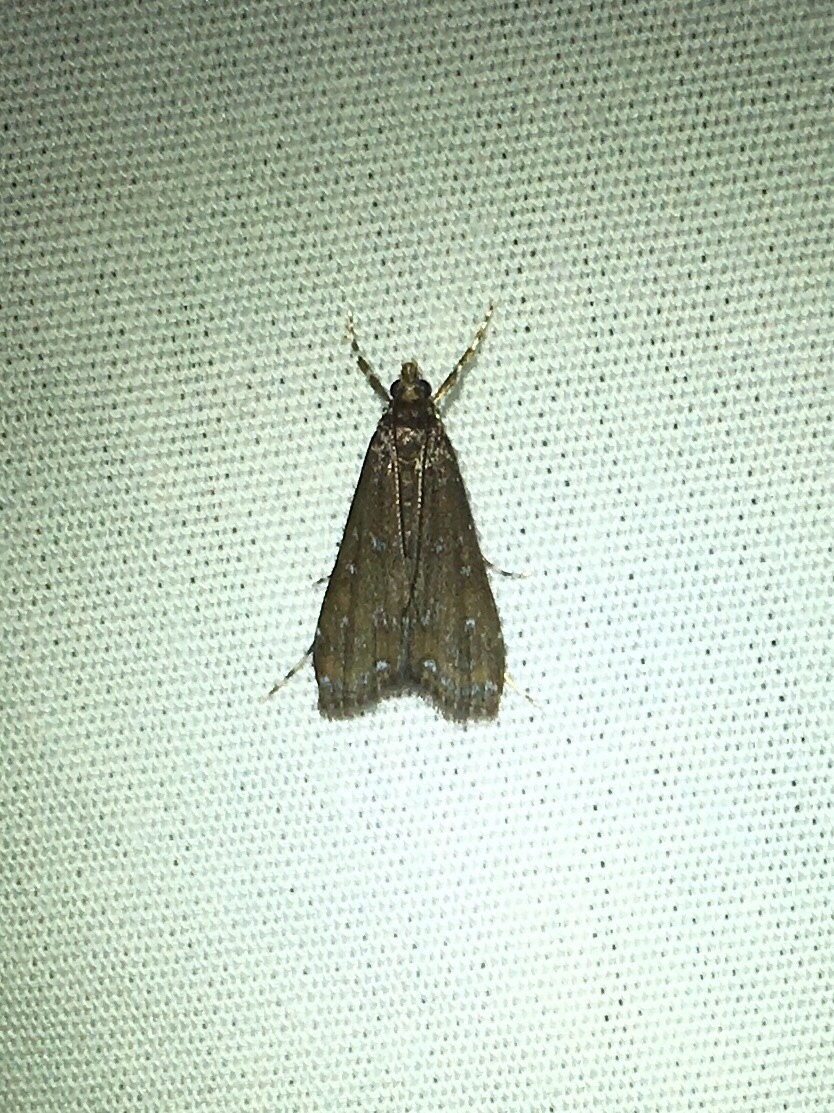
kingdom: Animalia
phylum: Arthropoda
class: Insecta
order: Lepidoptera
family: Crambidae
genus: Langessa
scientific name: Langessa nomophilalis
